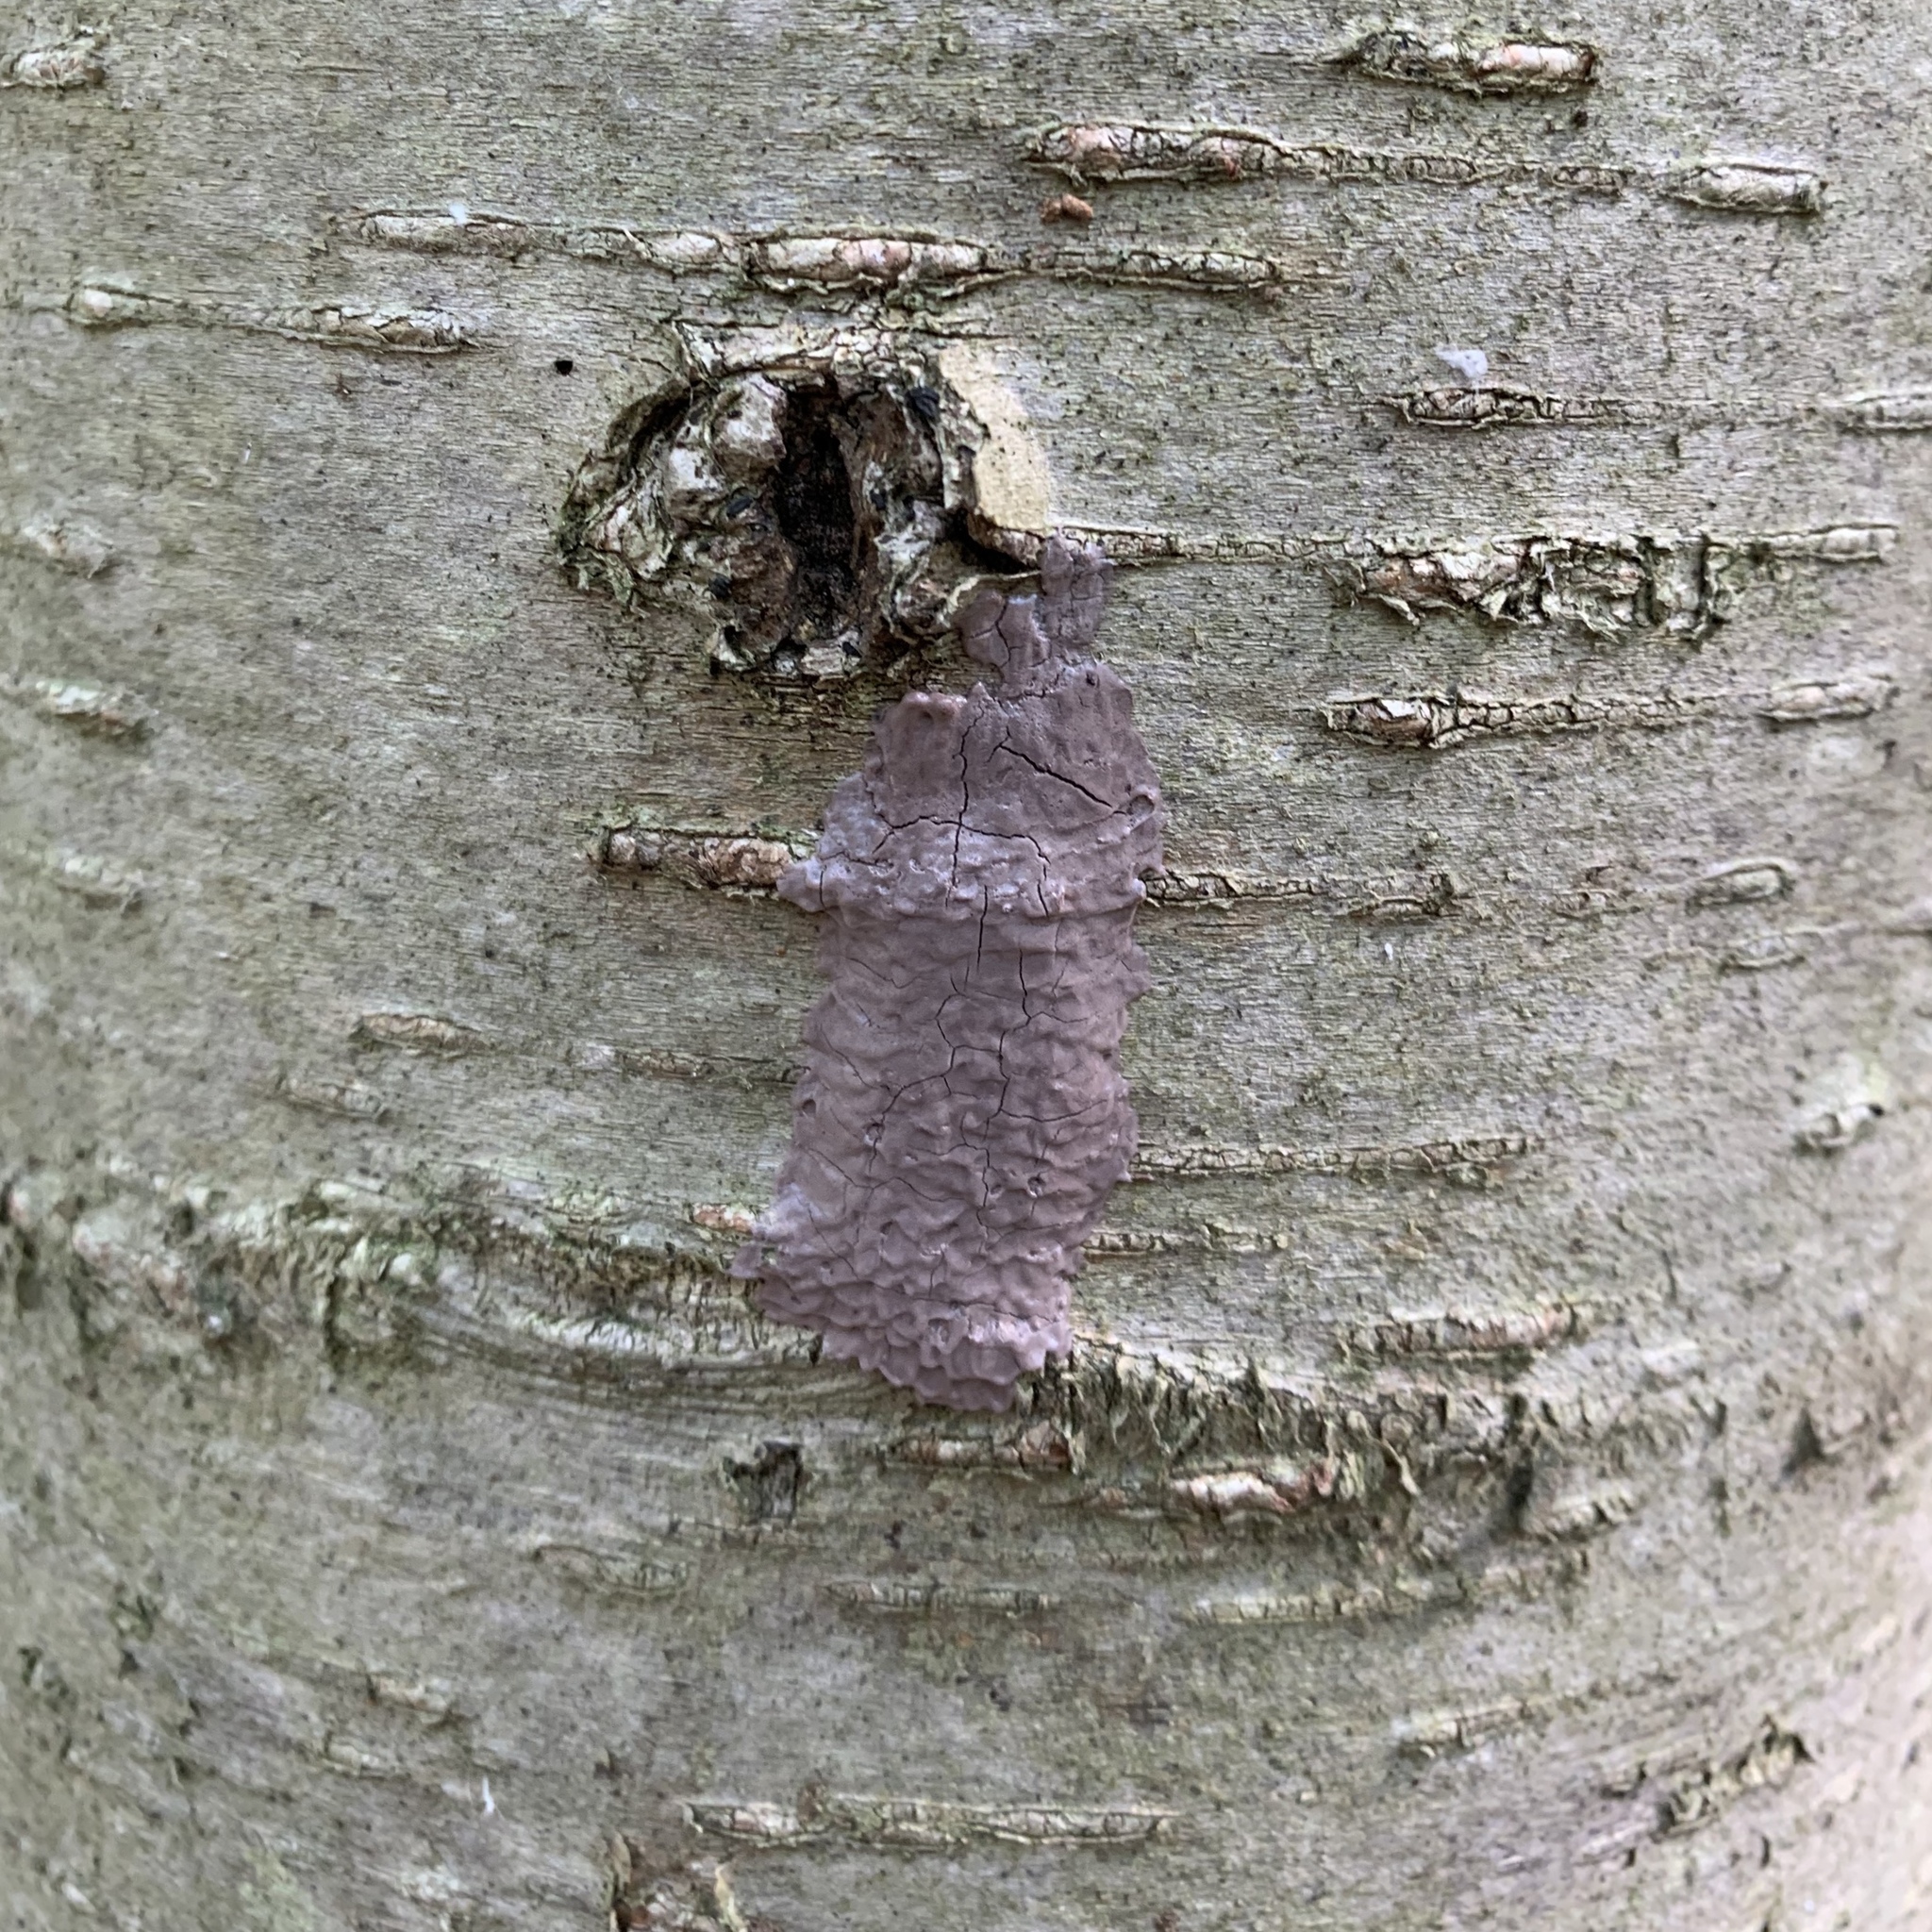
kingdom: Animalia
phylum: Arthropoda
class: Insecta
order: Hemiptera
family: Fulgoridae
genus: Lycorma
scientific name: Lycorma delicatula
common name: Spotted lanternfly
